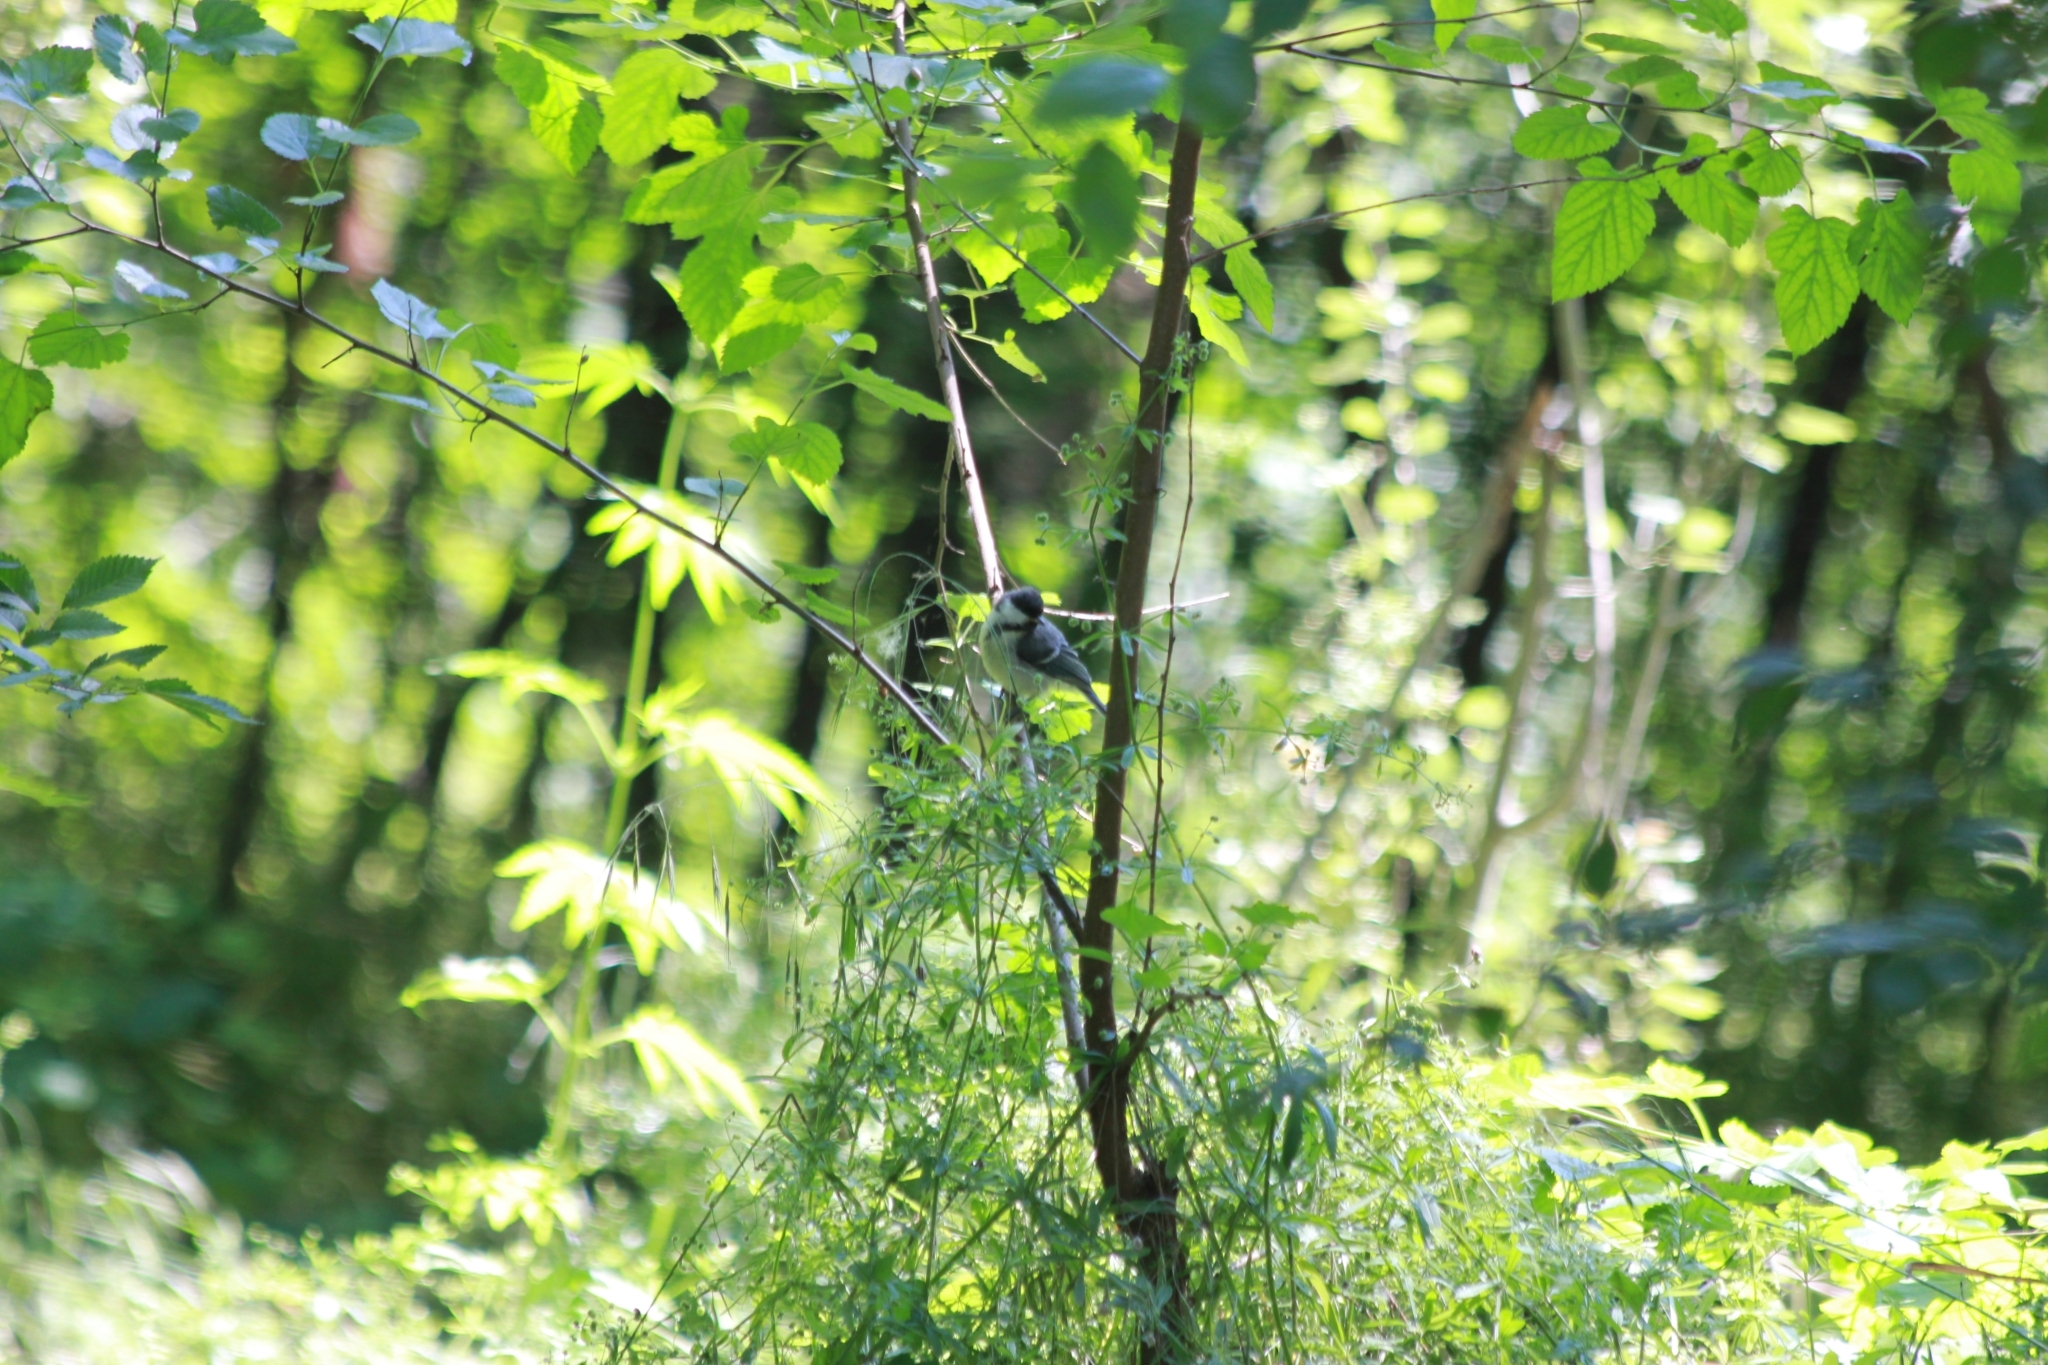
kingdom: Animalia
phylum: Chordata
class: Aves
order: Passeriformes
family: Paridae
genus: Parus
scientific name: Parus major
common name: Great tit
